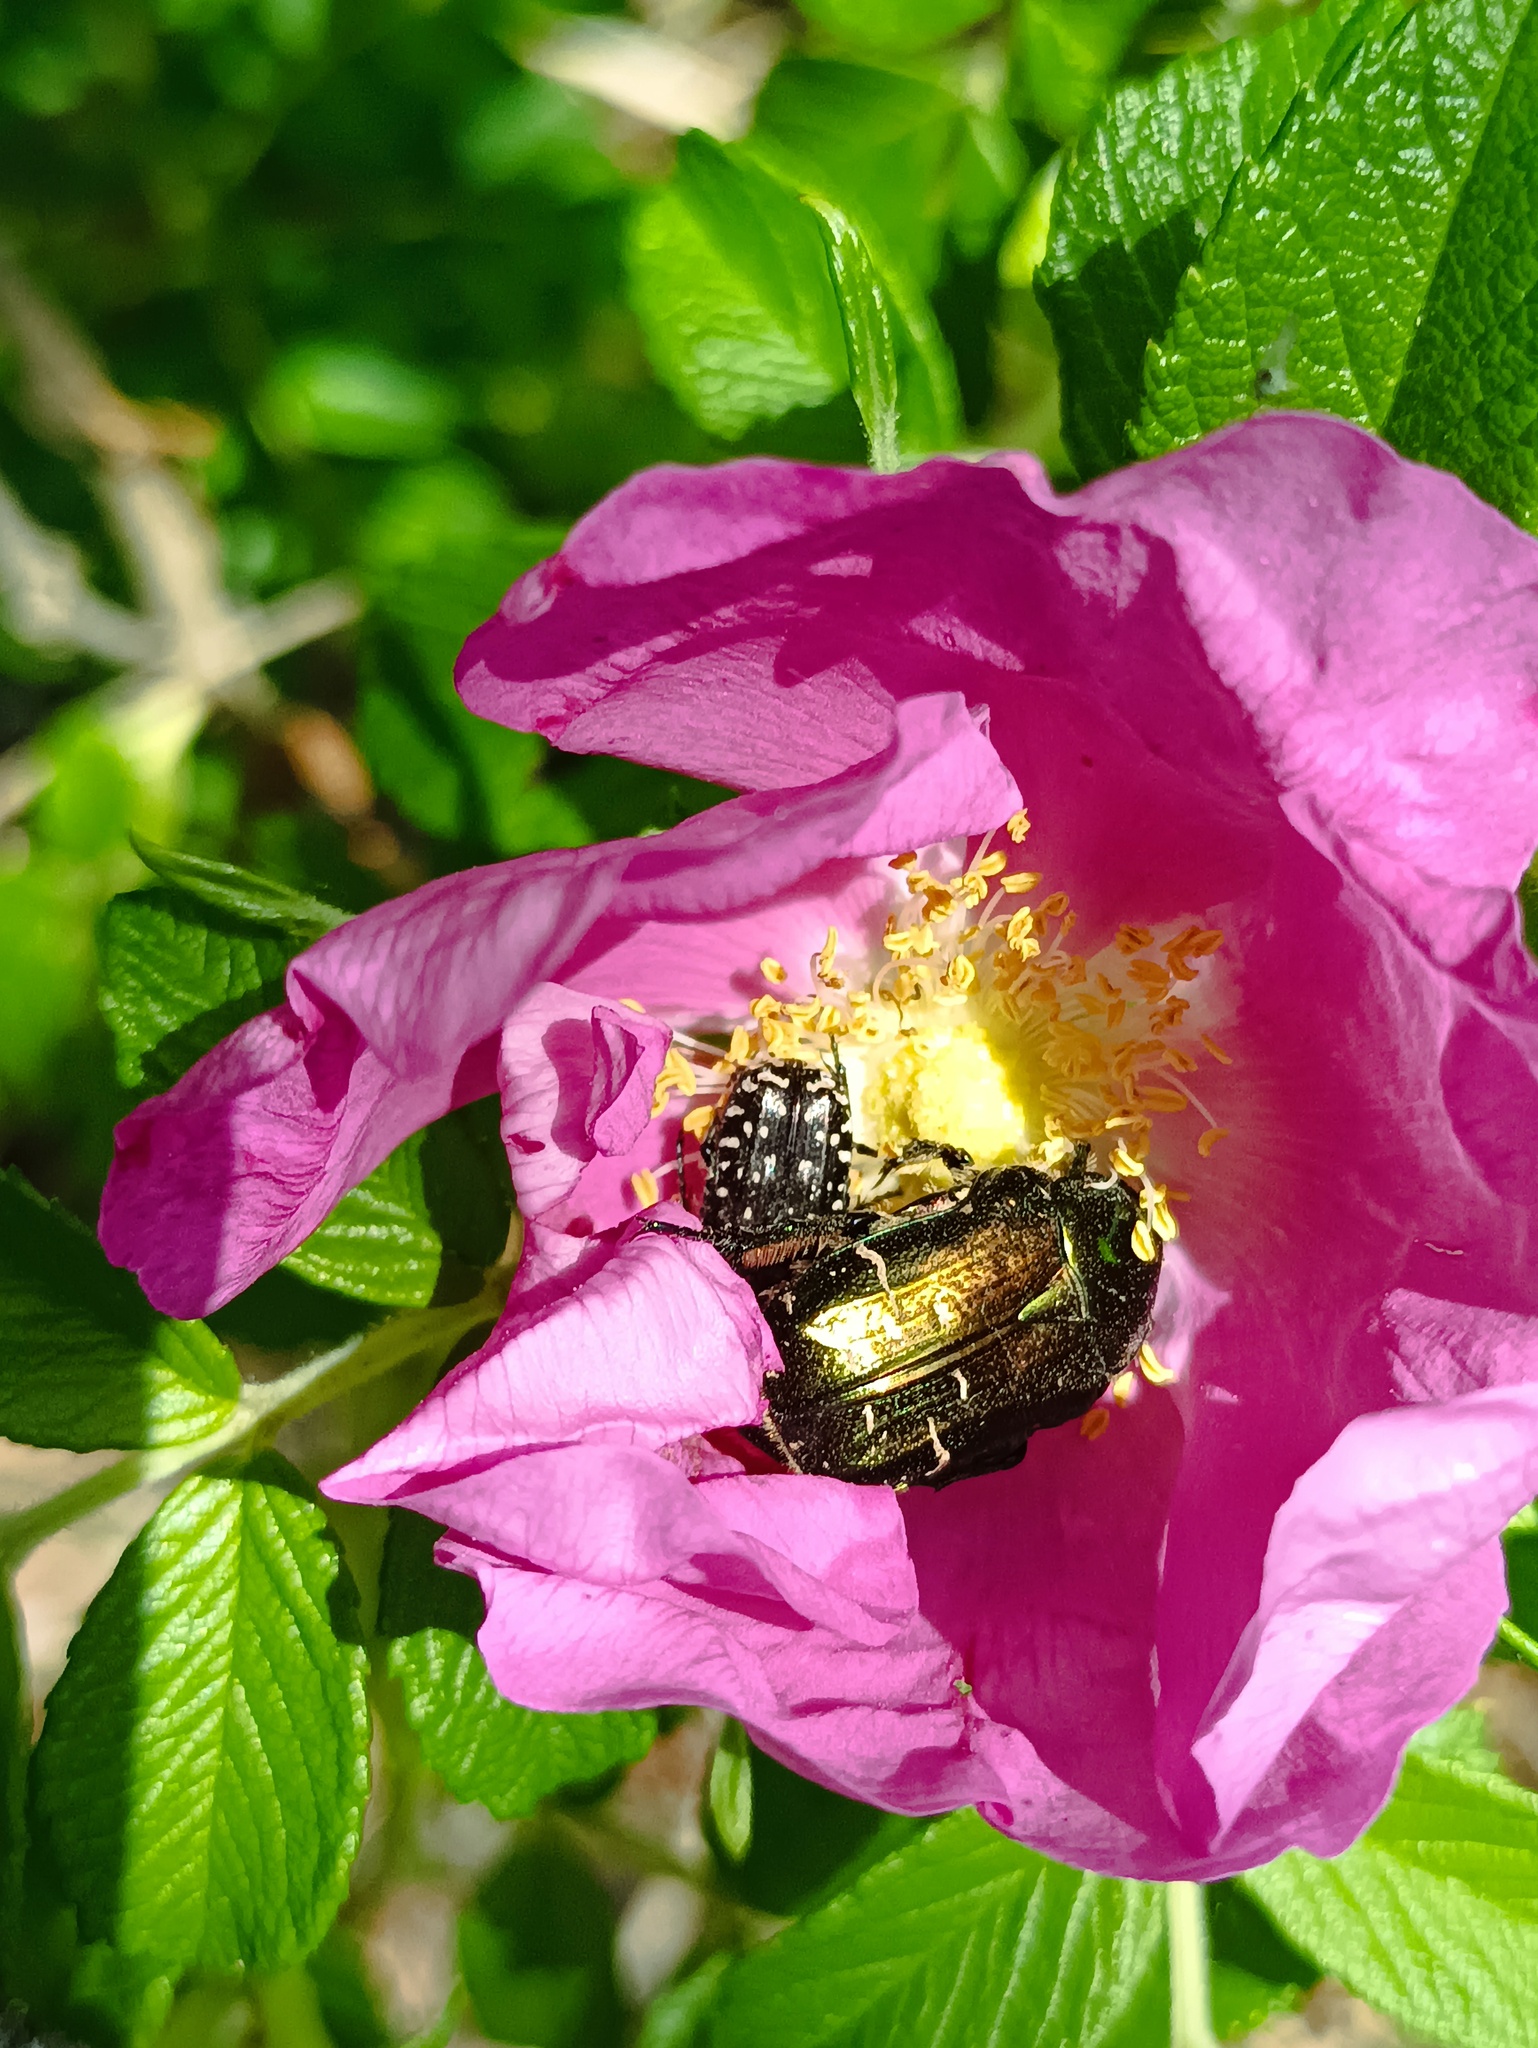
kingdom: Animalia
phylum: Arthropoda
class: Insecta
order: Coleoptera
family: Scarabaeidae
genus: Cetonia
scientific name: Cetonia aurata
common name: Rose chafer
